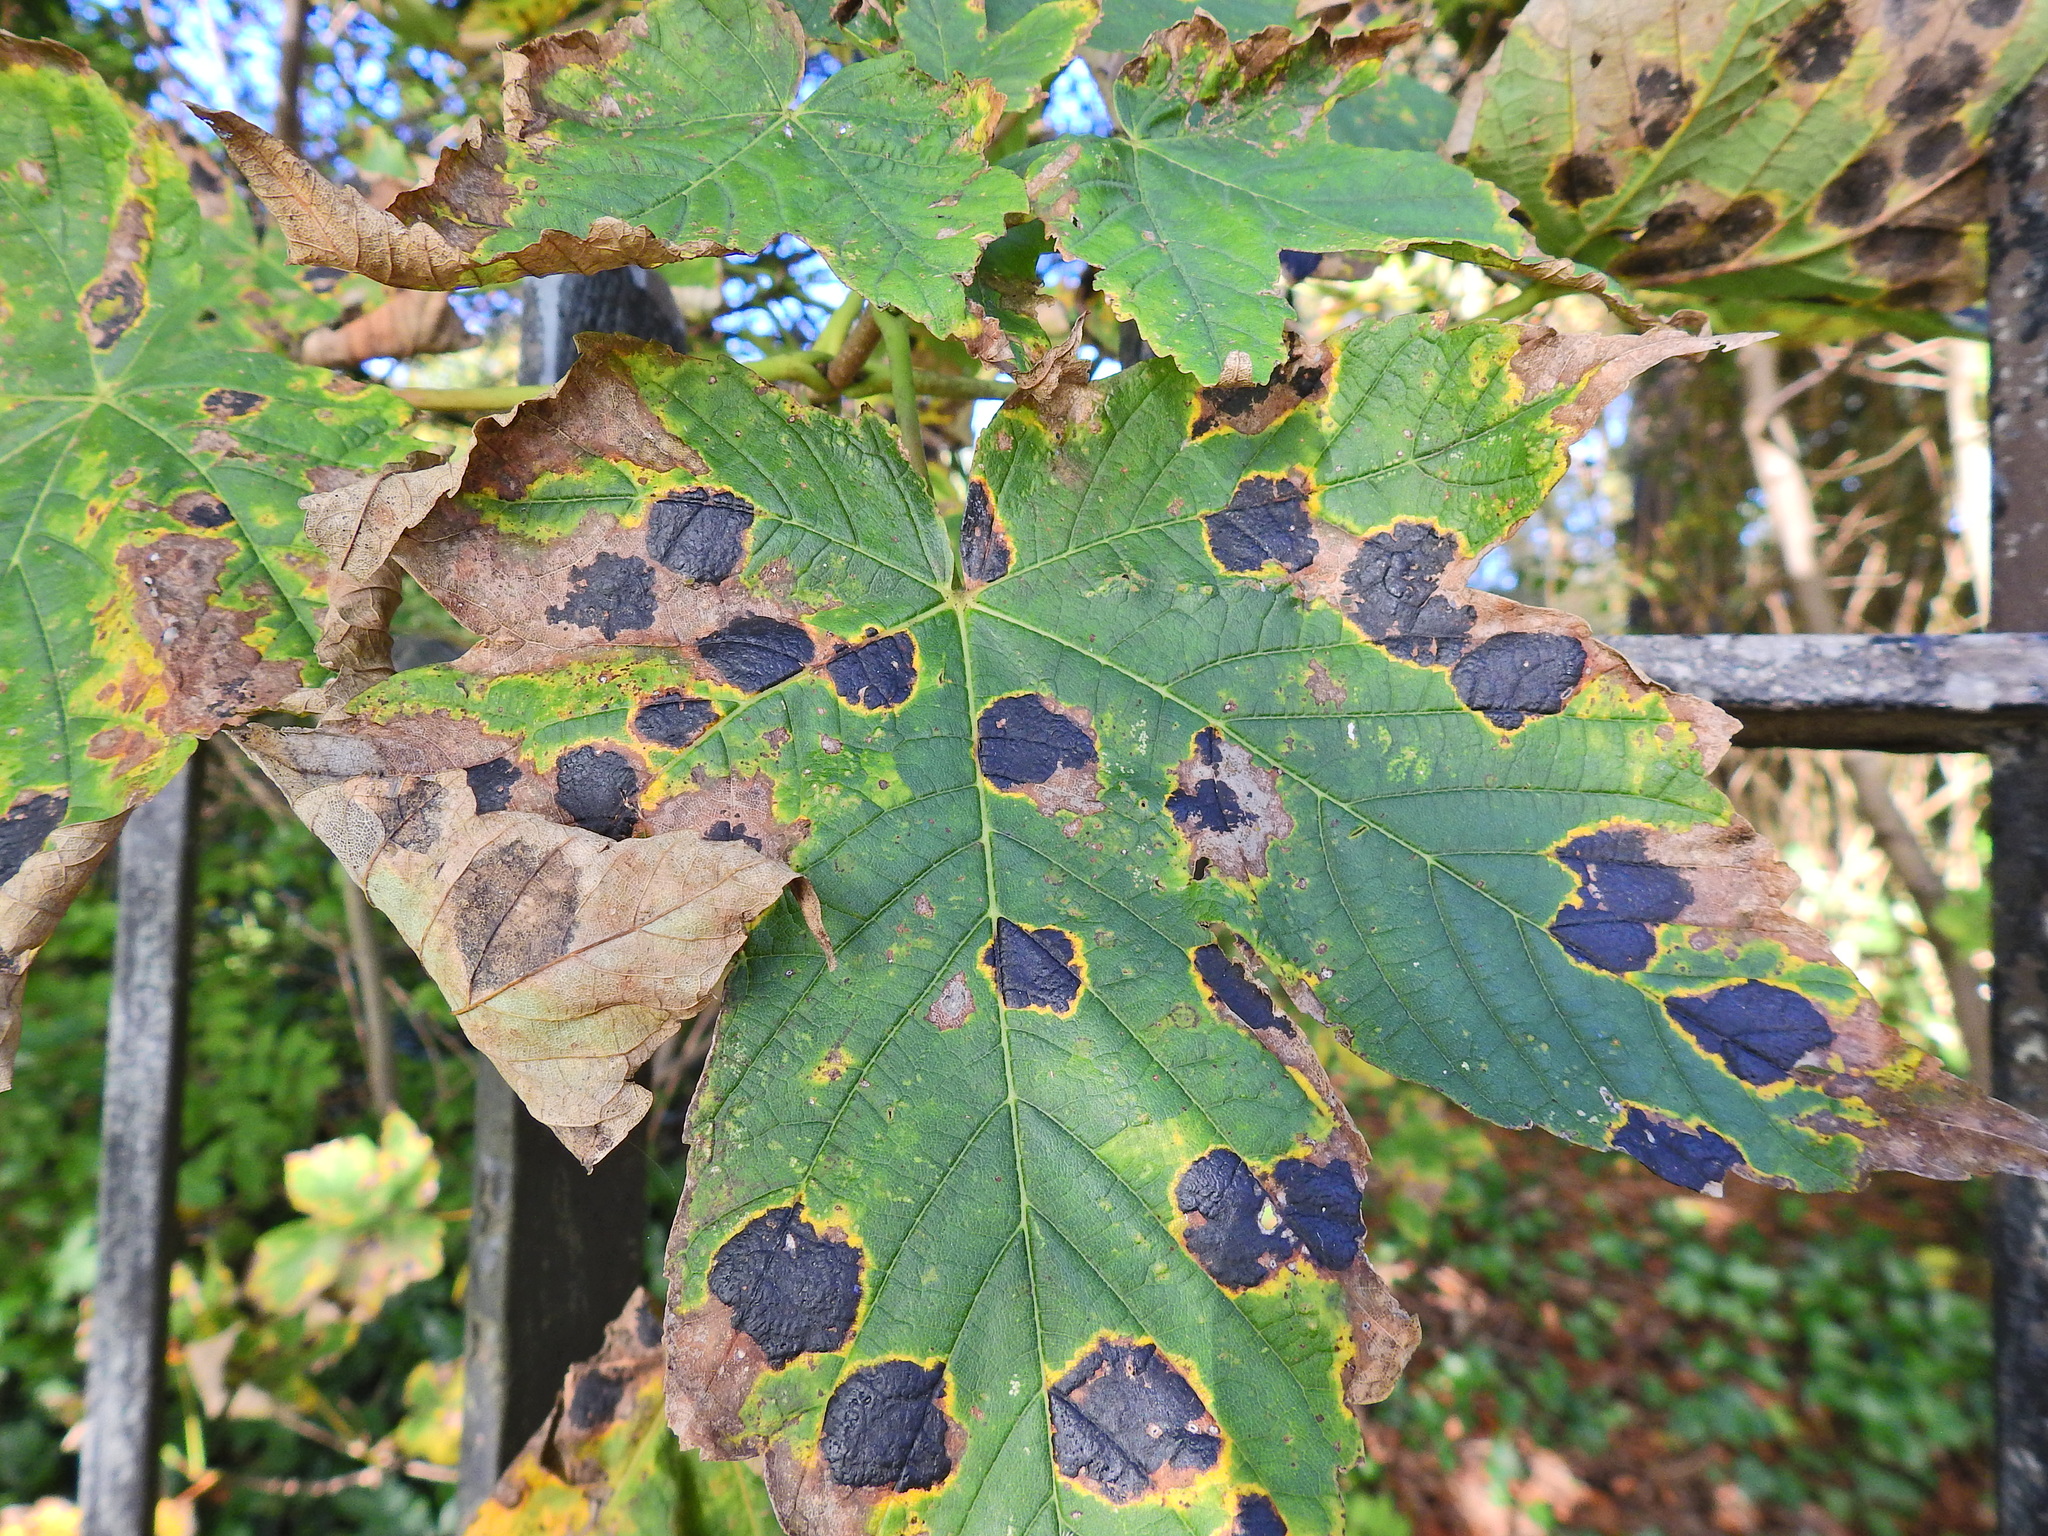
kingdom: Fungi
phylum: Ascomycota
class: Leotiomycetes
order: Rhytismatales
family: Rhytismataceae
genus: Rhytisma
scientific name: Rhytisma acerinum
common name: European tar spot
